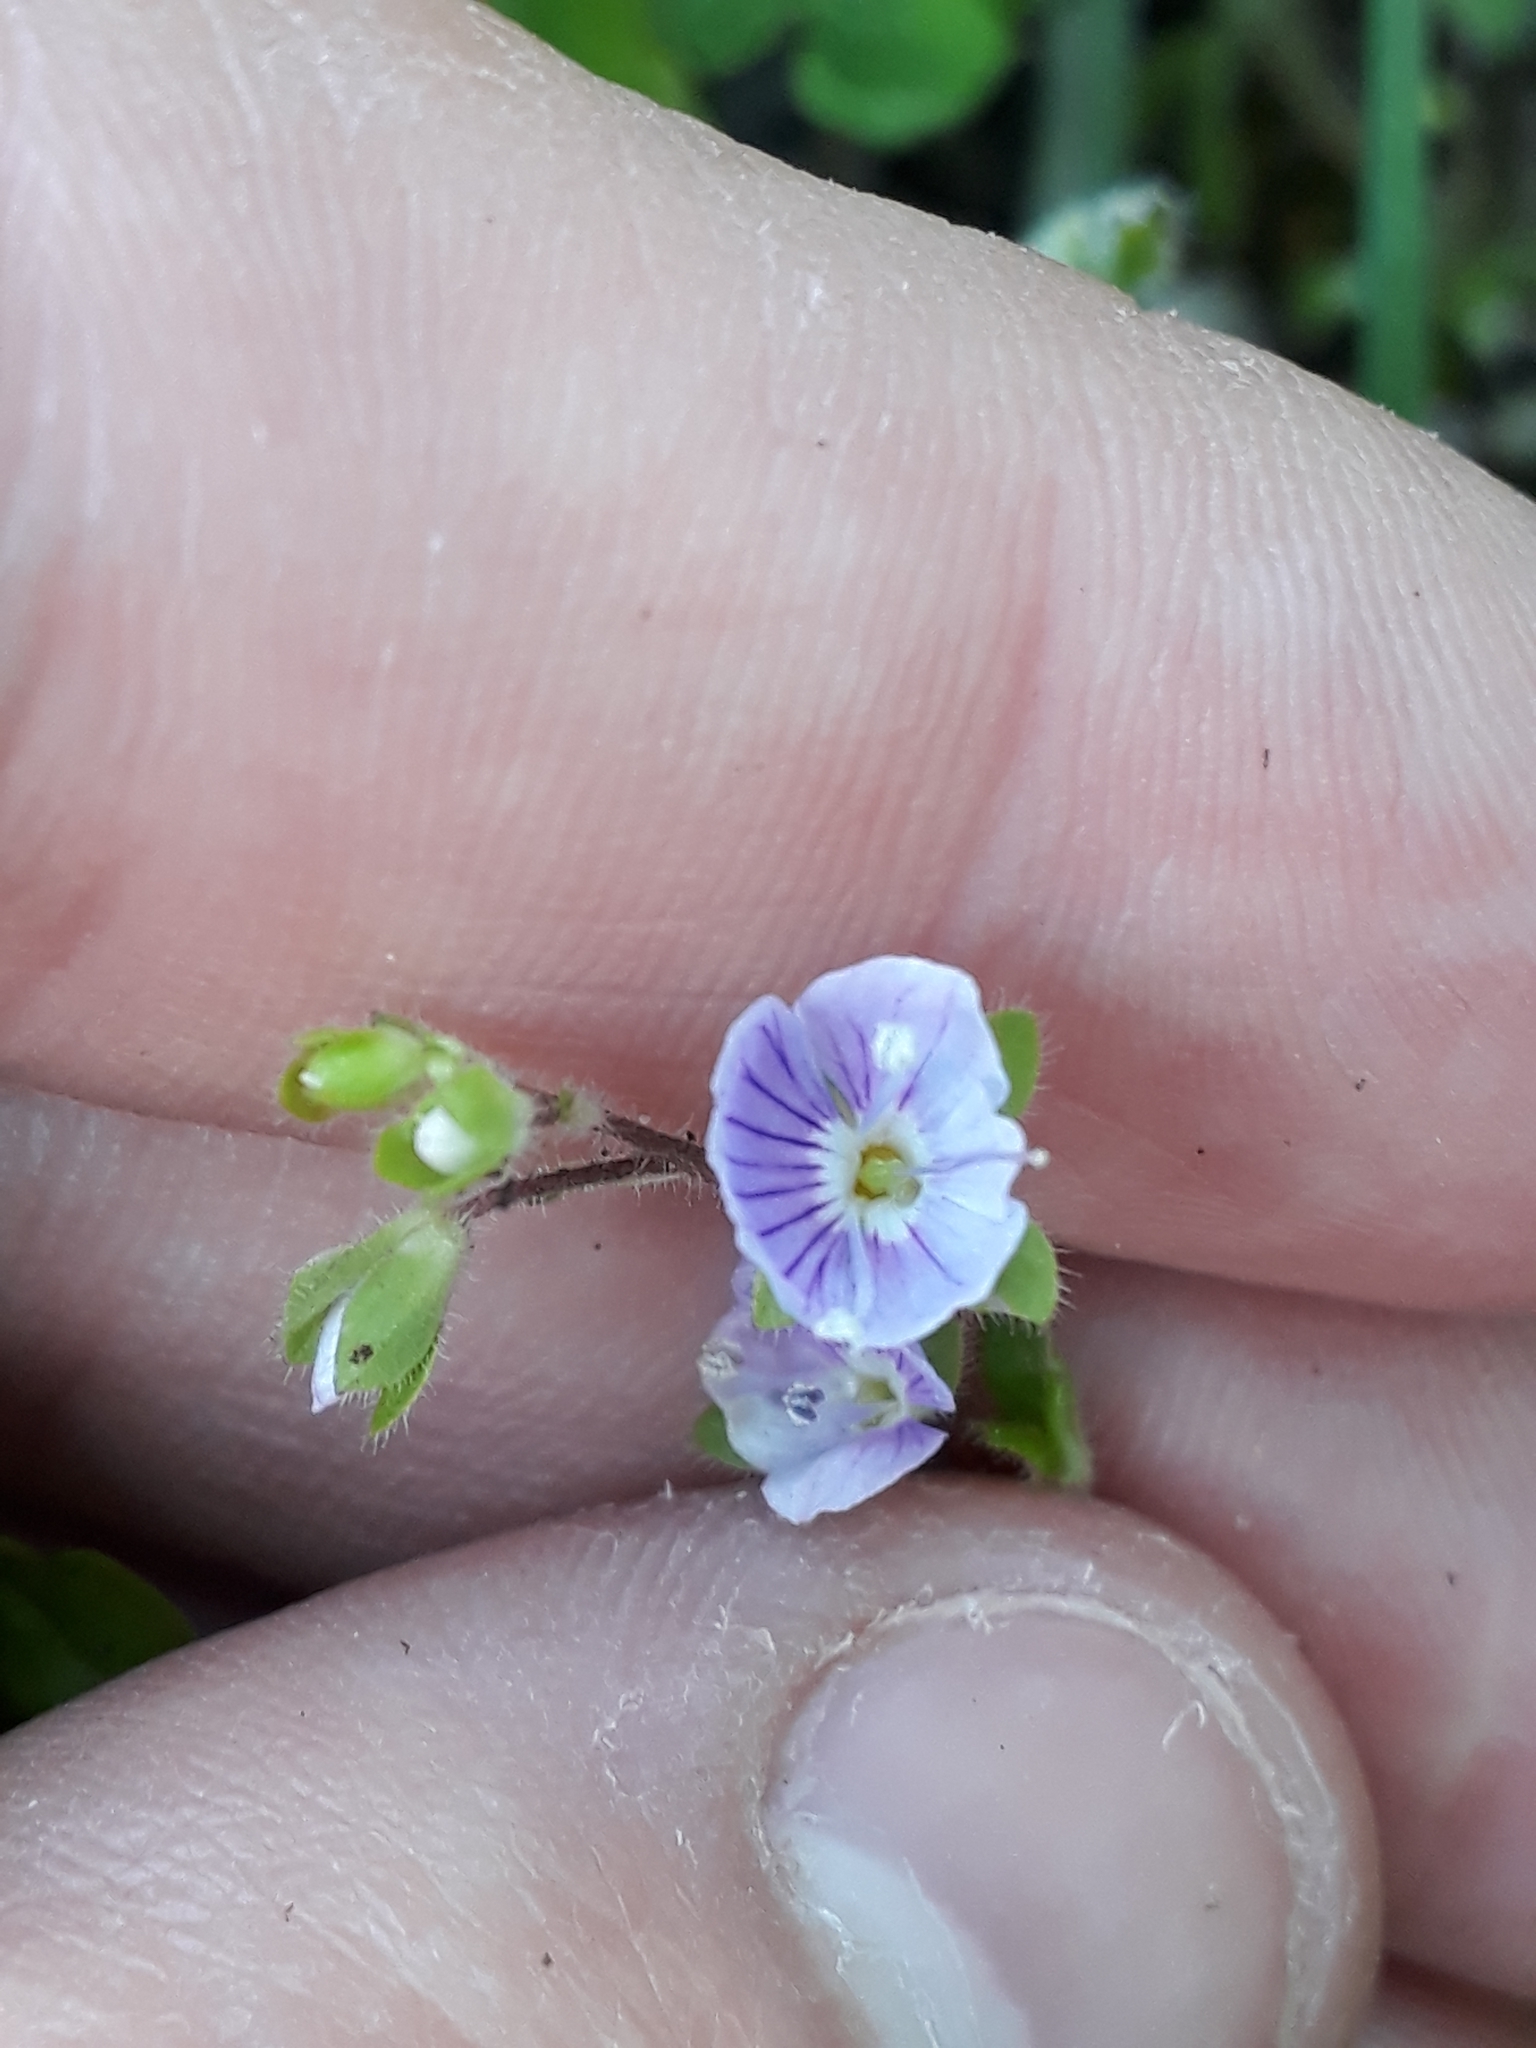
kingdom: Plantae
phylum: Tracheophyta
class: Magnoliopsida
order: Lamiales
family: Plantaginaceae
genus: Veronica
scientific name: Veronica montana
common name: Wood speedwell
